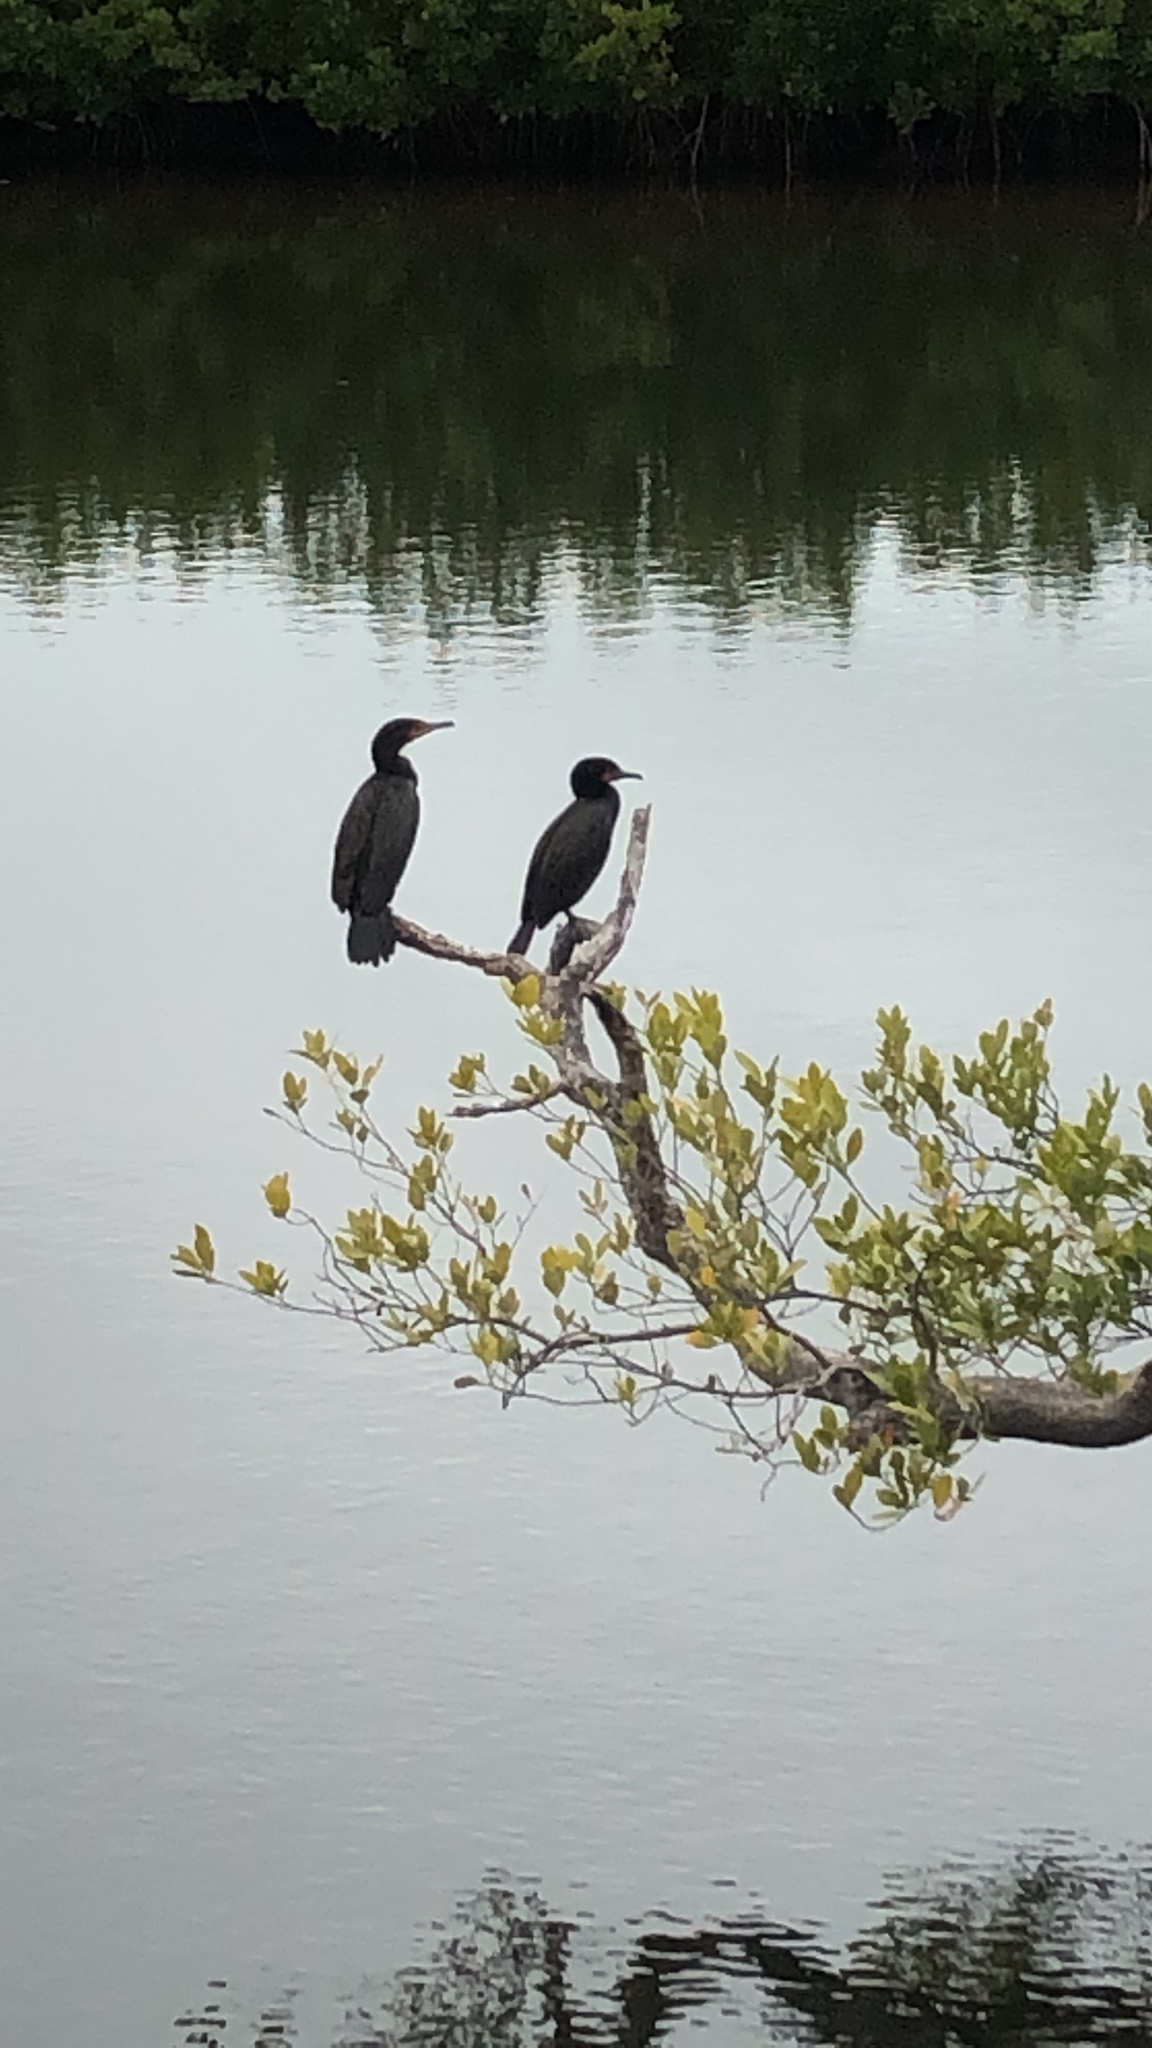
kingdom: Animalia
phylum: Chordata
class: Aves
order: Suliformes
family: Phalacrocoracidae
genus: Phalacrocorax
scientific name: Phalacrocorax auritus
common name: Double-crested cormorant
